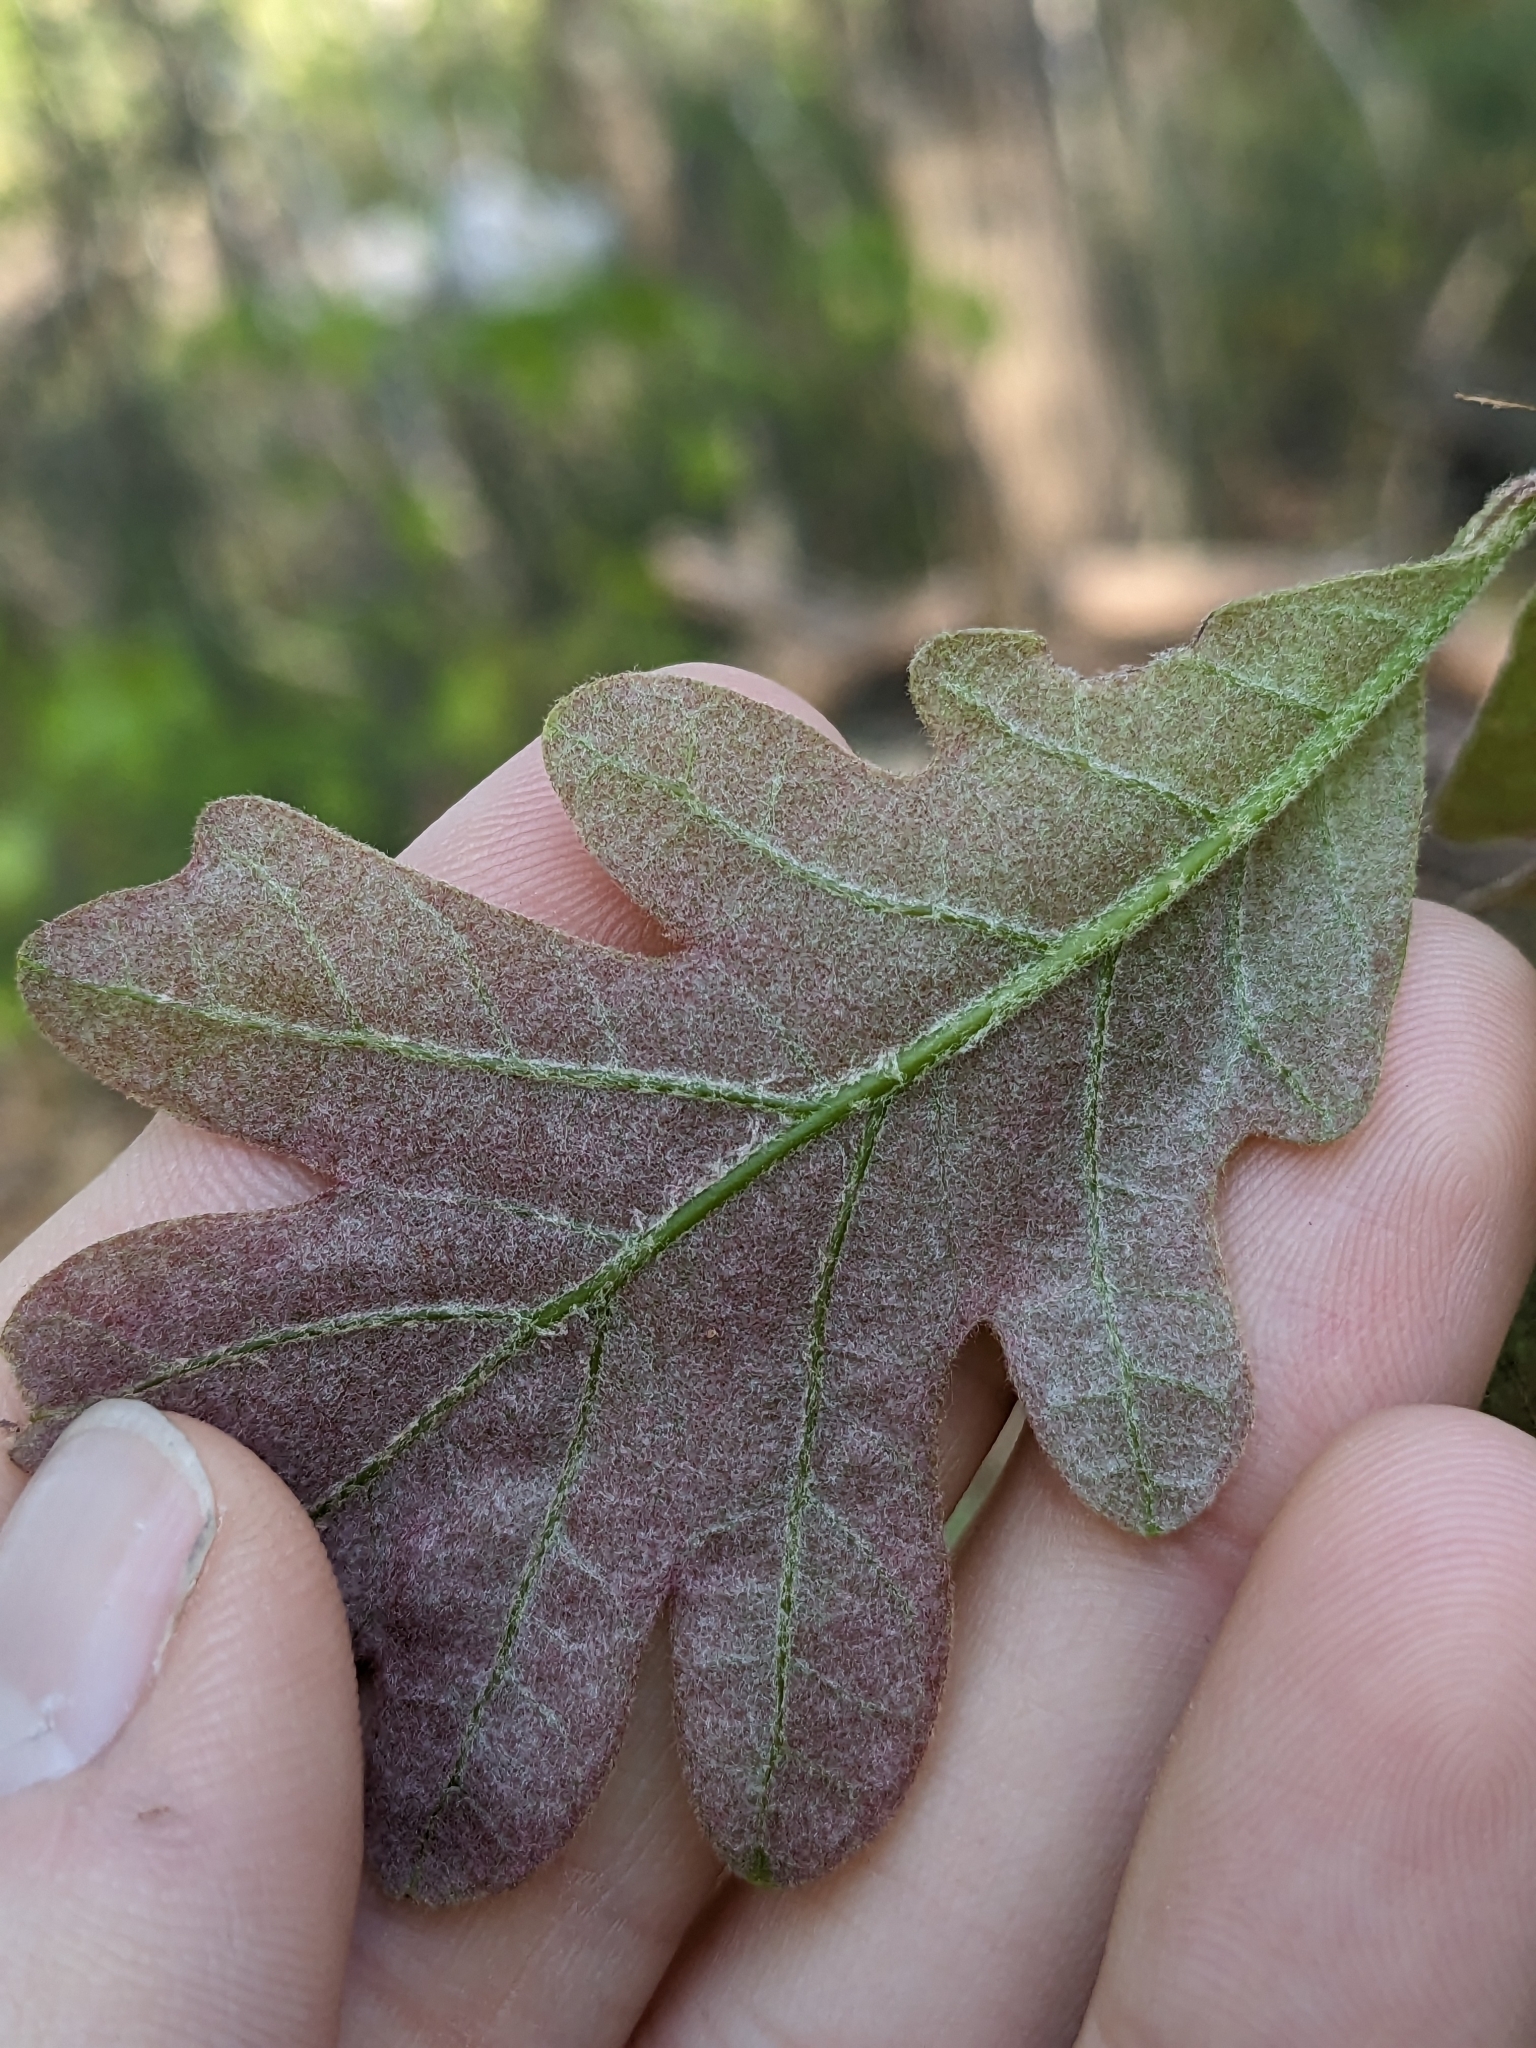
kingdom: Plantae
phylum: Tracheophyta
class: Magnoliopsida
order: Fagales
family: Fagaceae
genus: Quercus
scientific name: Quercus alba
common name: White oak
